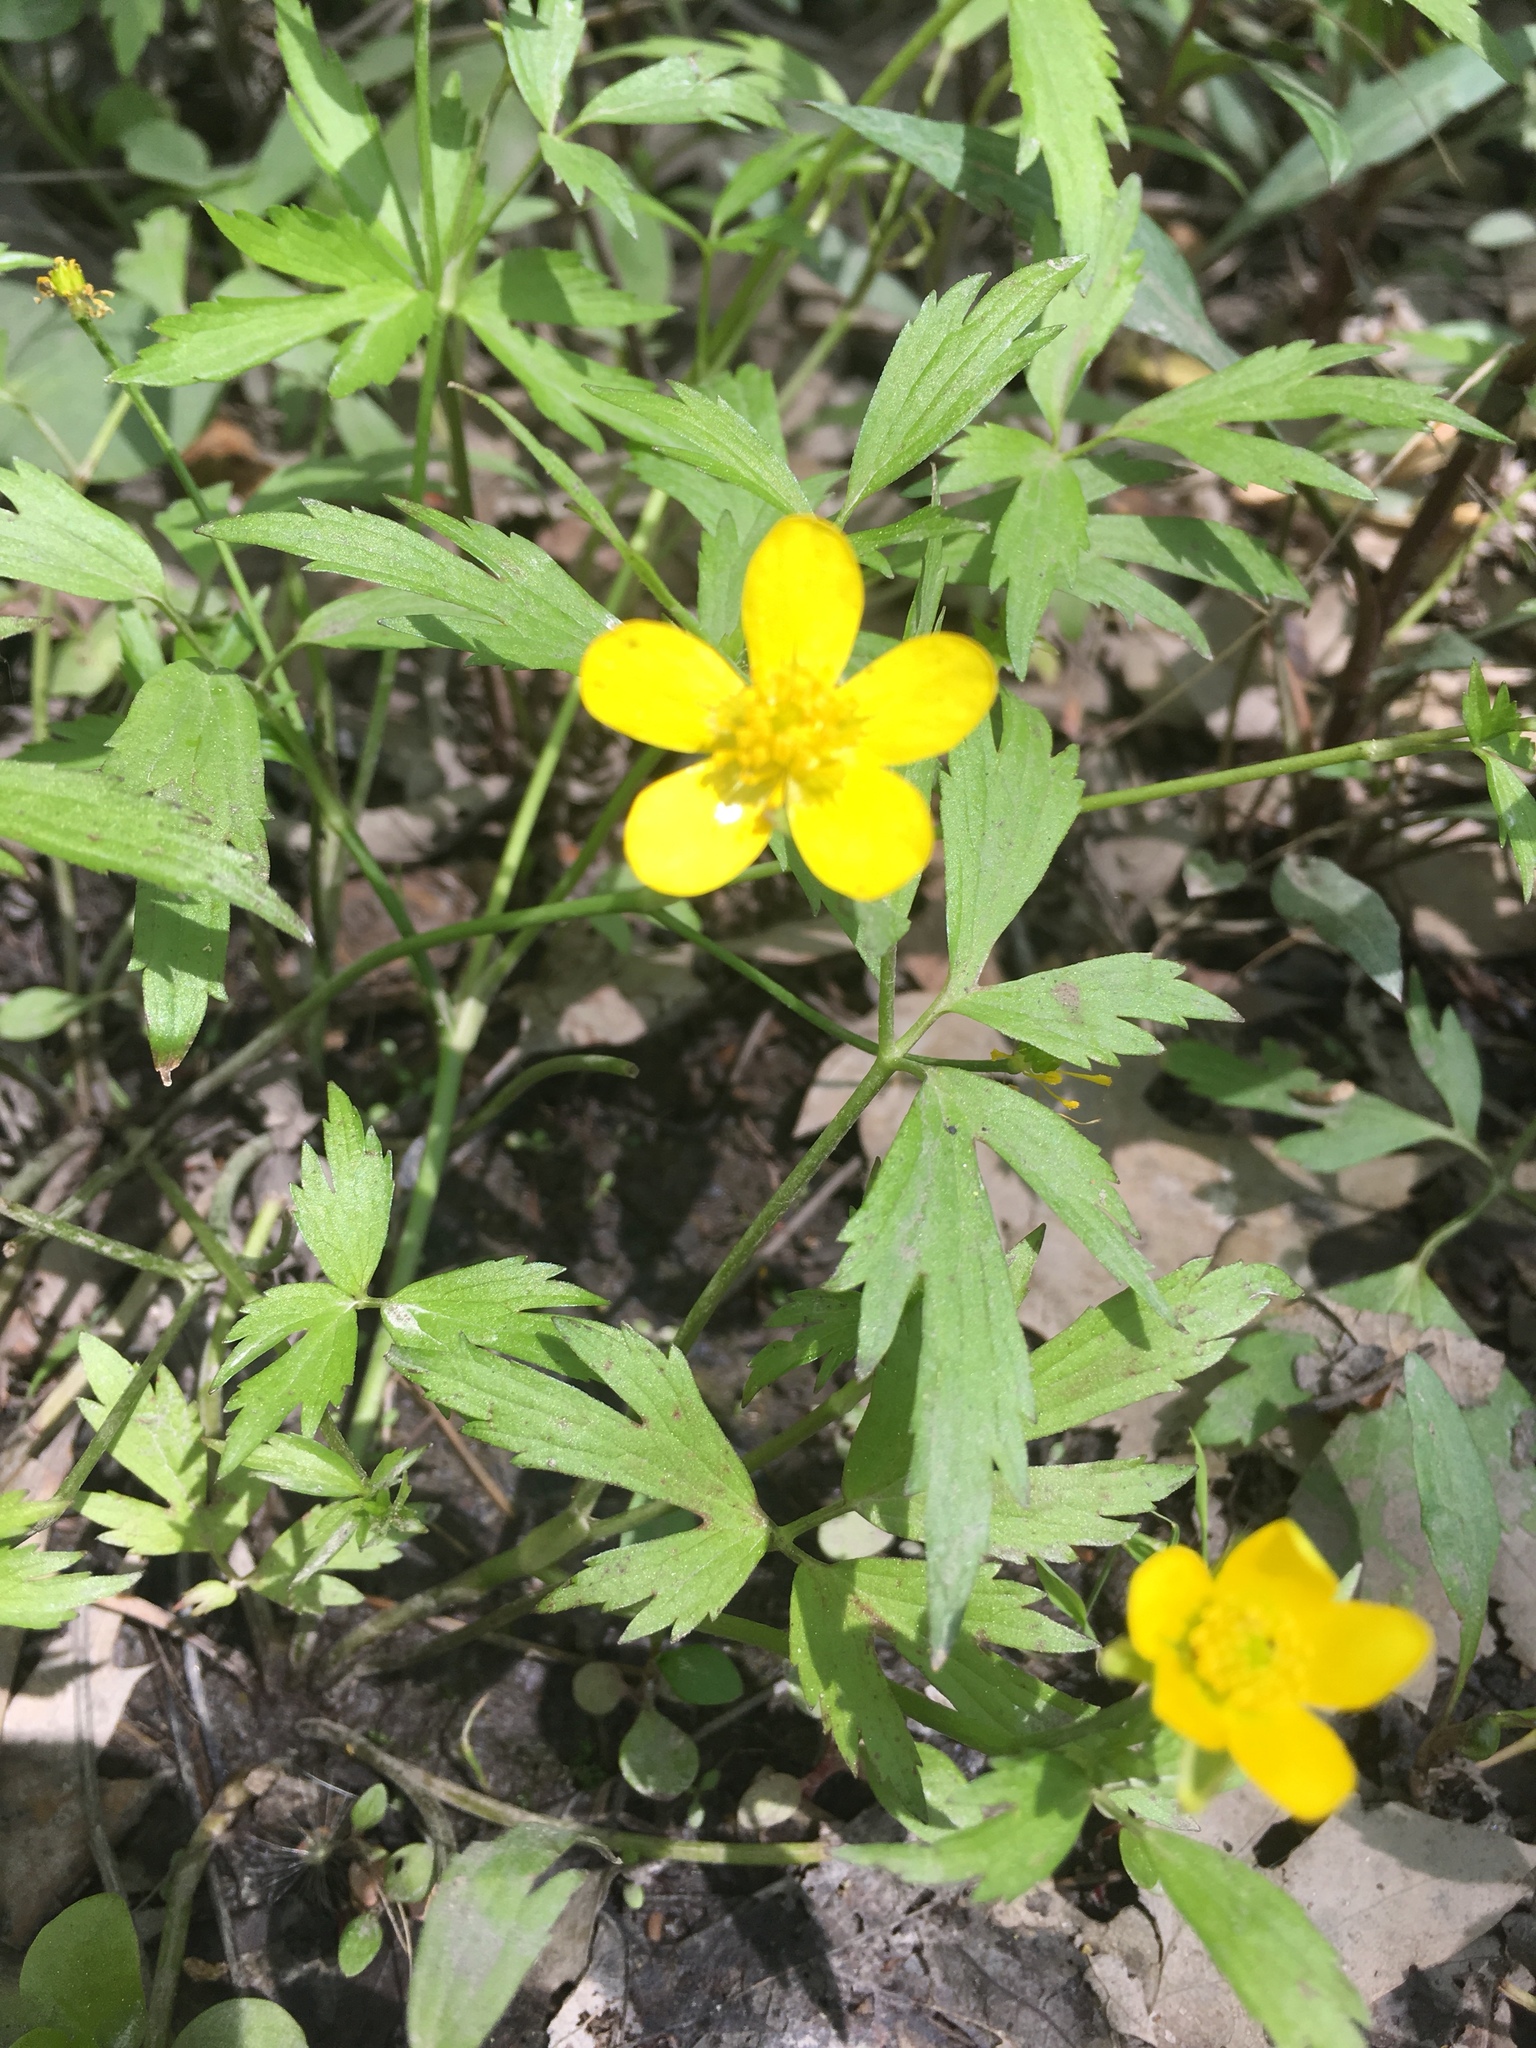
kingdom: Plantae
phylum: Tracheophyta
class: Magnoliopsida
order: Ranunculales
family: Ranunculaceae
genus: Ranunculus
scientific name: Ranunculus hispidus
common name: Bristly buttercup
